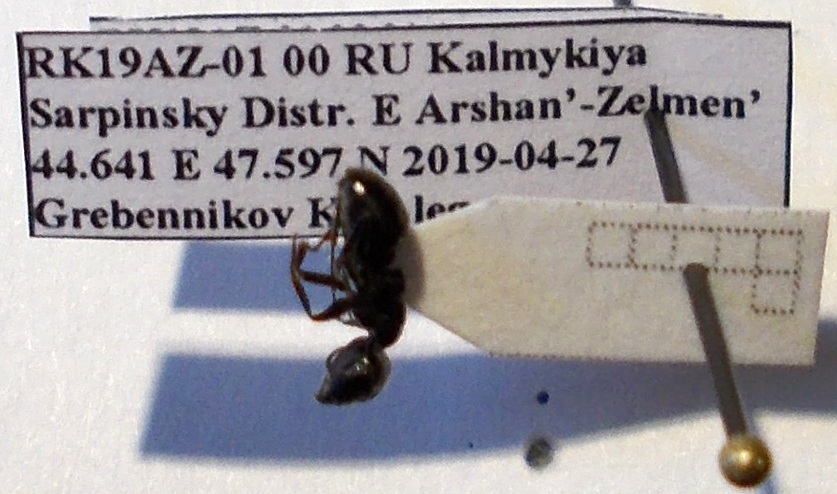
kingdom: Animalia
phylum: Arthropoda
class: Insecta
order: Hymenoptera
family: Formicidae
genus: Camponotus
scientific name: Camponotus piceus
